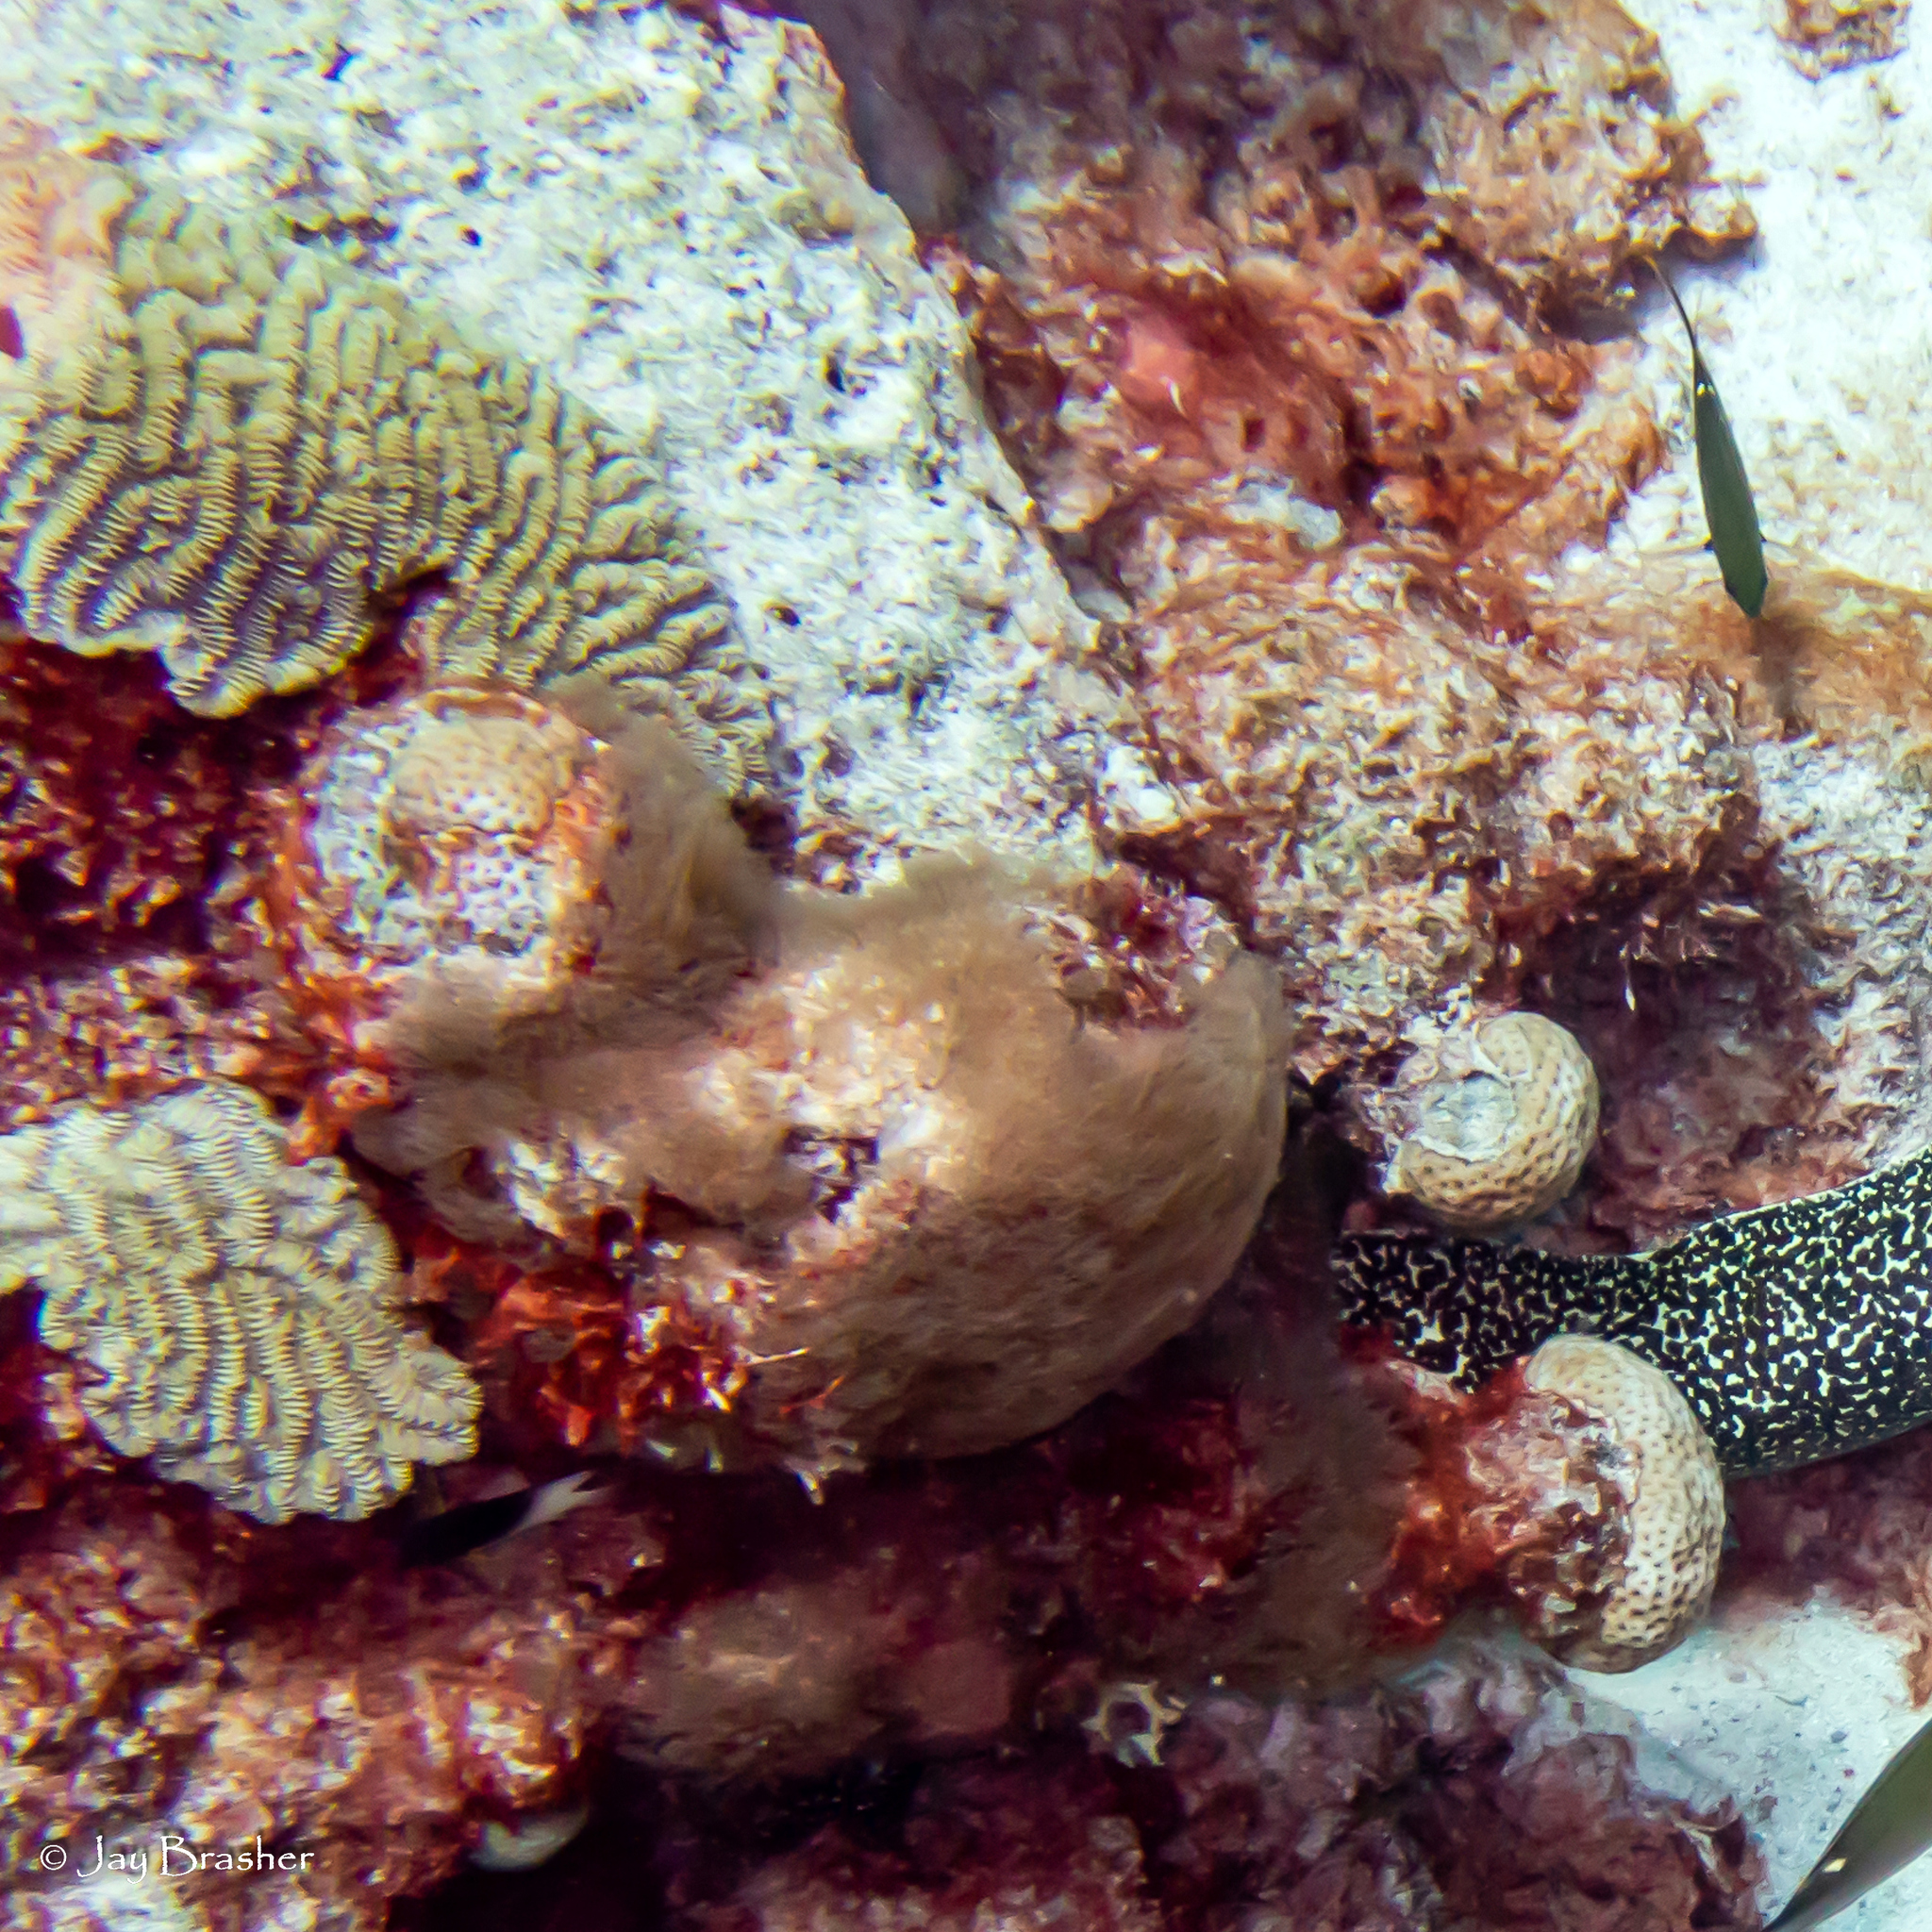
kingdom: Animalia
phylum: Cnidaria
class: Anthozoa
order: Scleralcyonacea
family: Erythropodiidae
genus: Erythropodium
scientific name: Erythropodium caribaeorum
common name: Encrusting gorgonian
